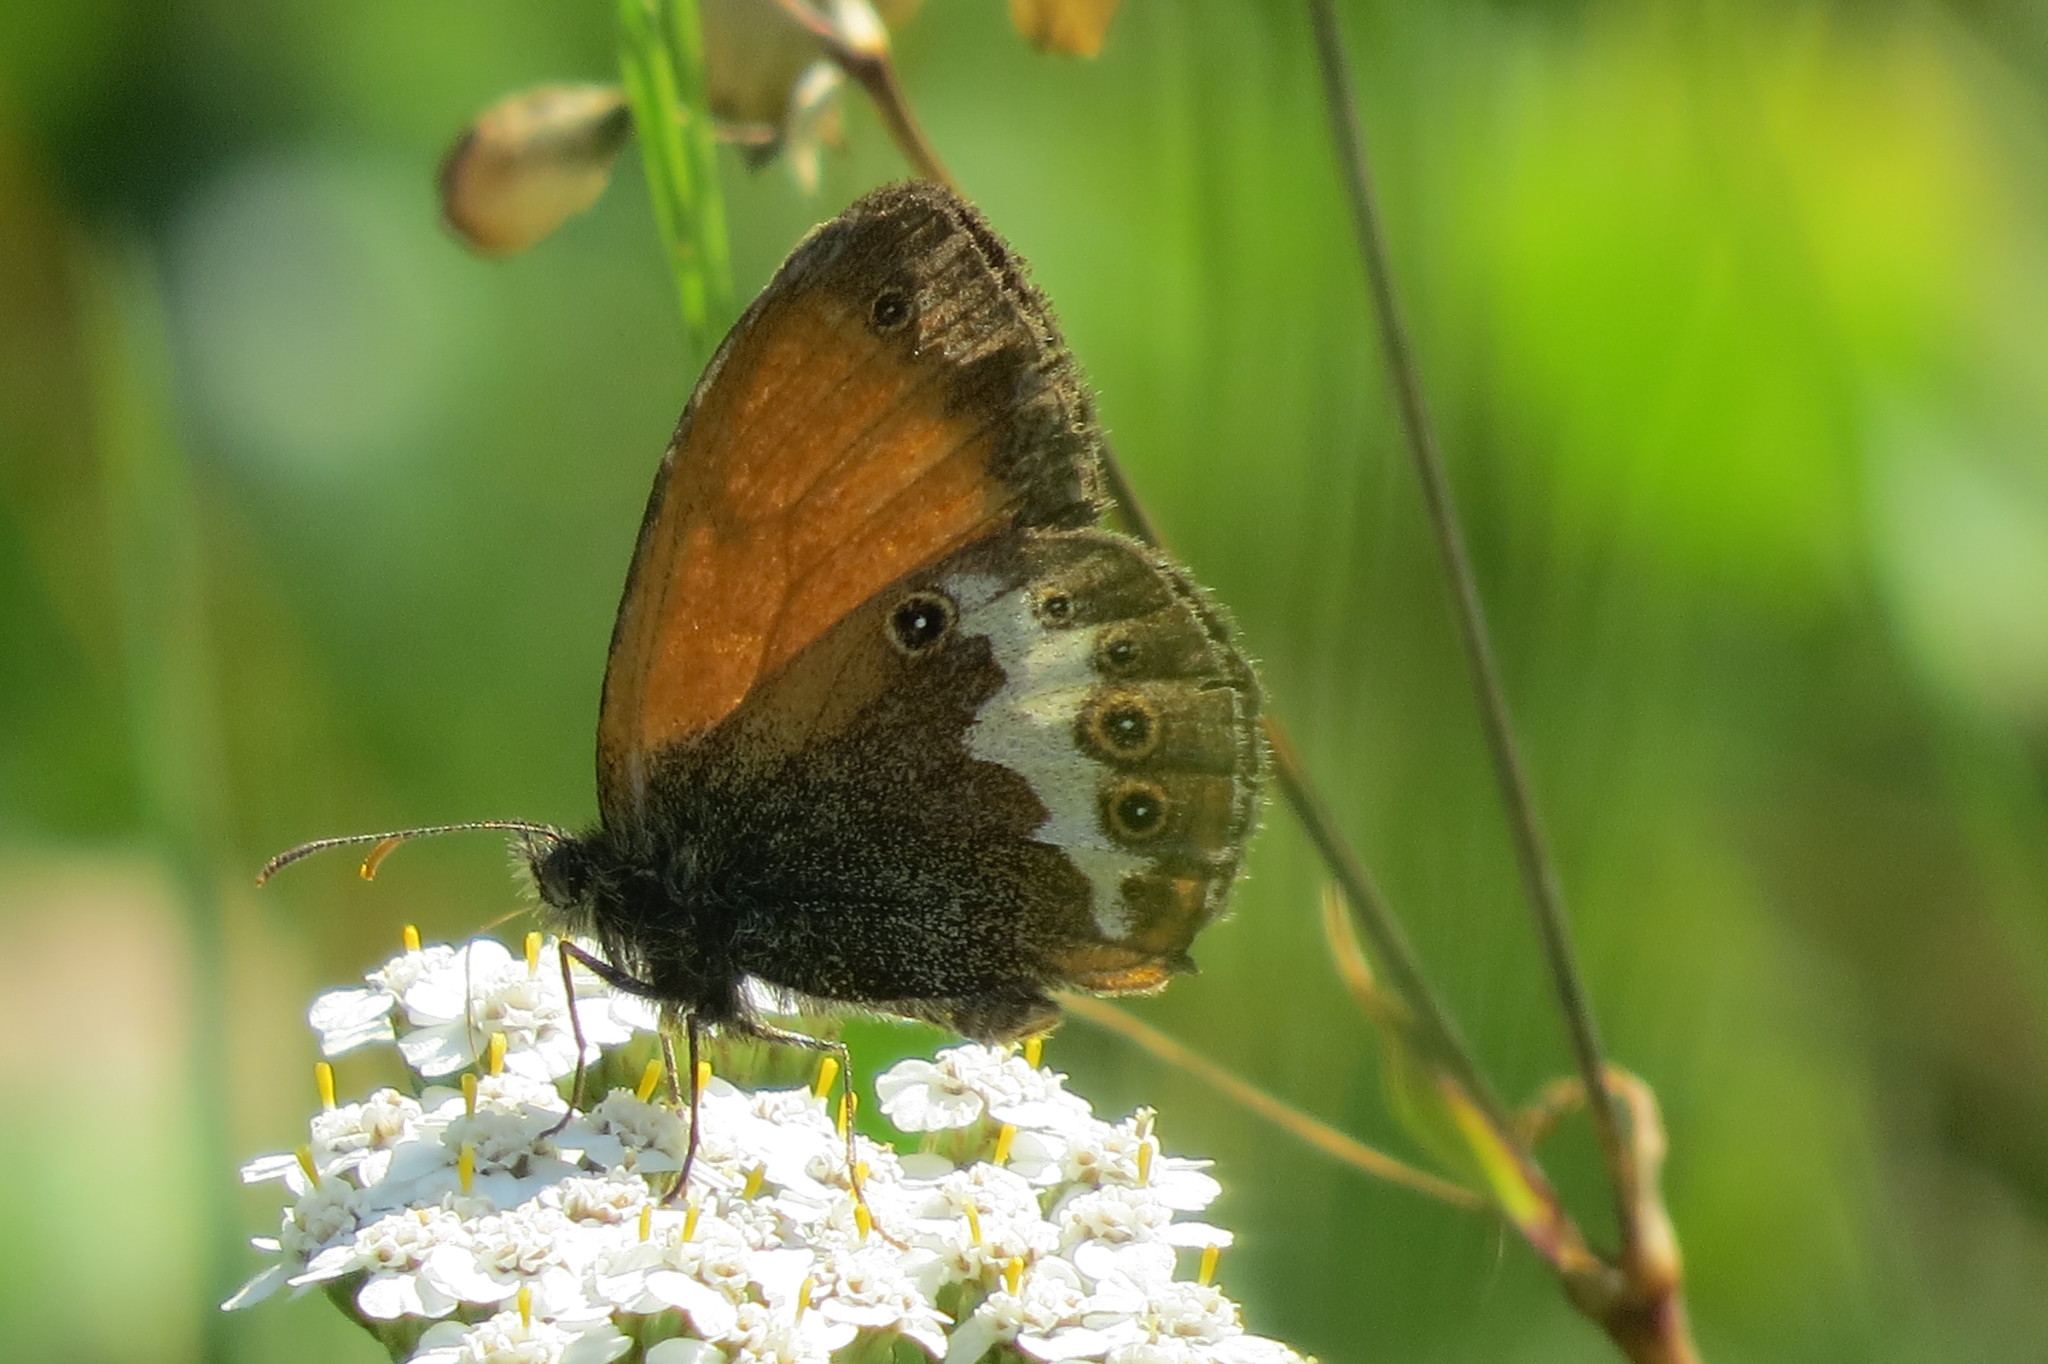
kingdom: Animalia
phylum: Arthropoda
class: Insecta
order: Lepidoptera
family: Nymphalidae
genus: Coenonympha
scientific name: Coenonympha arcania
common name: Pearly heath
